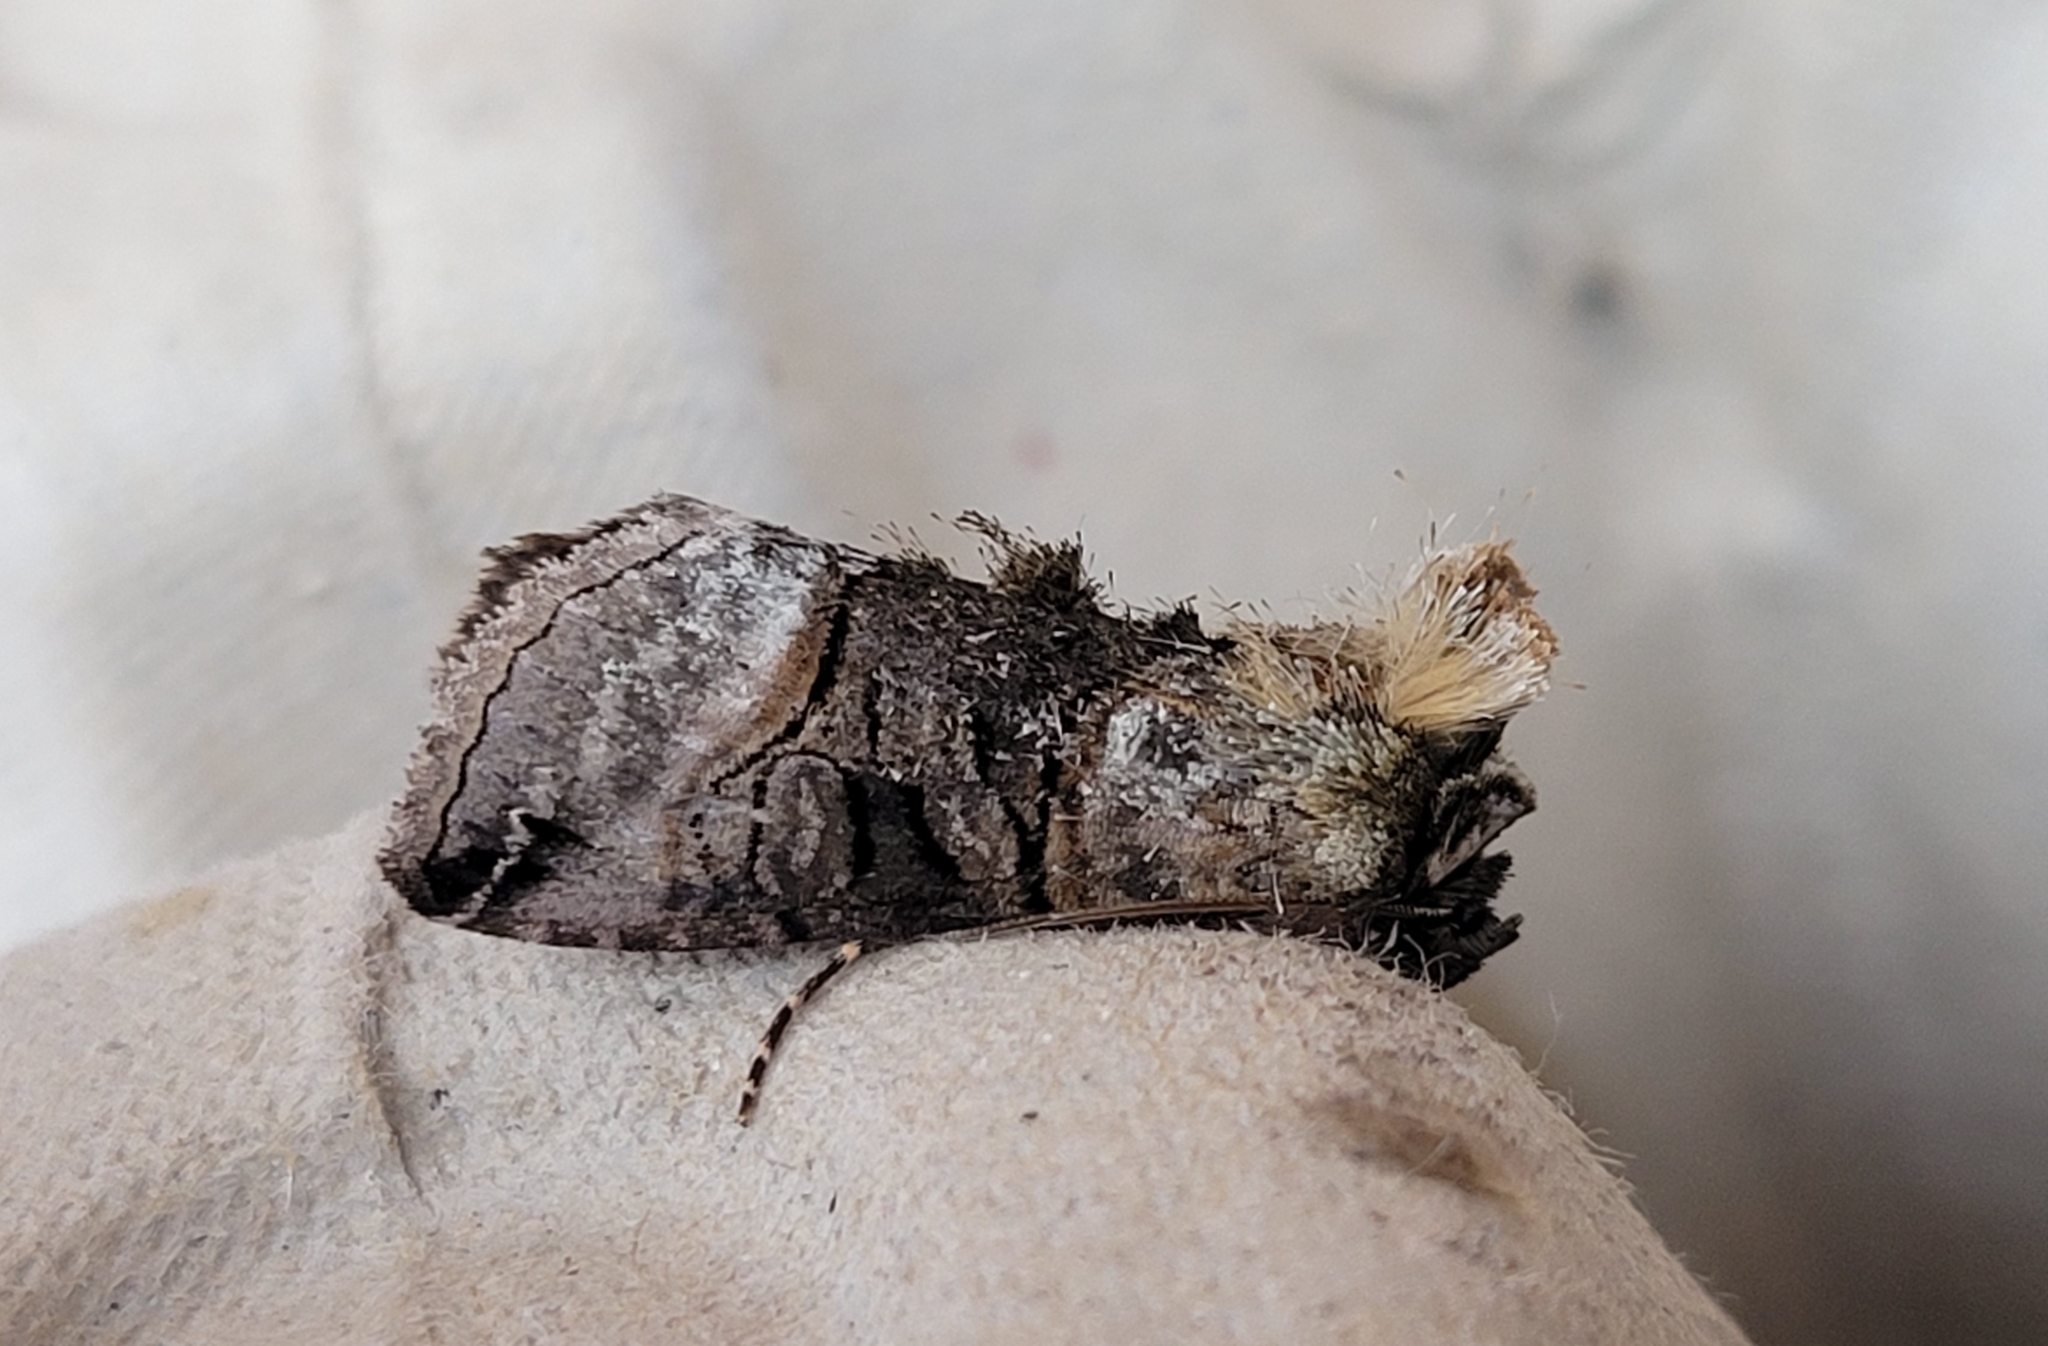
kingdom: Animalia
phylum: Arthropoda
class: Insecta
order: Lepidoptera
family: Noctuidae
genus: Abrostola
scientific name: Abrostola tripartita
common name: Spectacle
